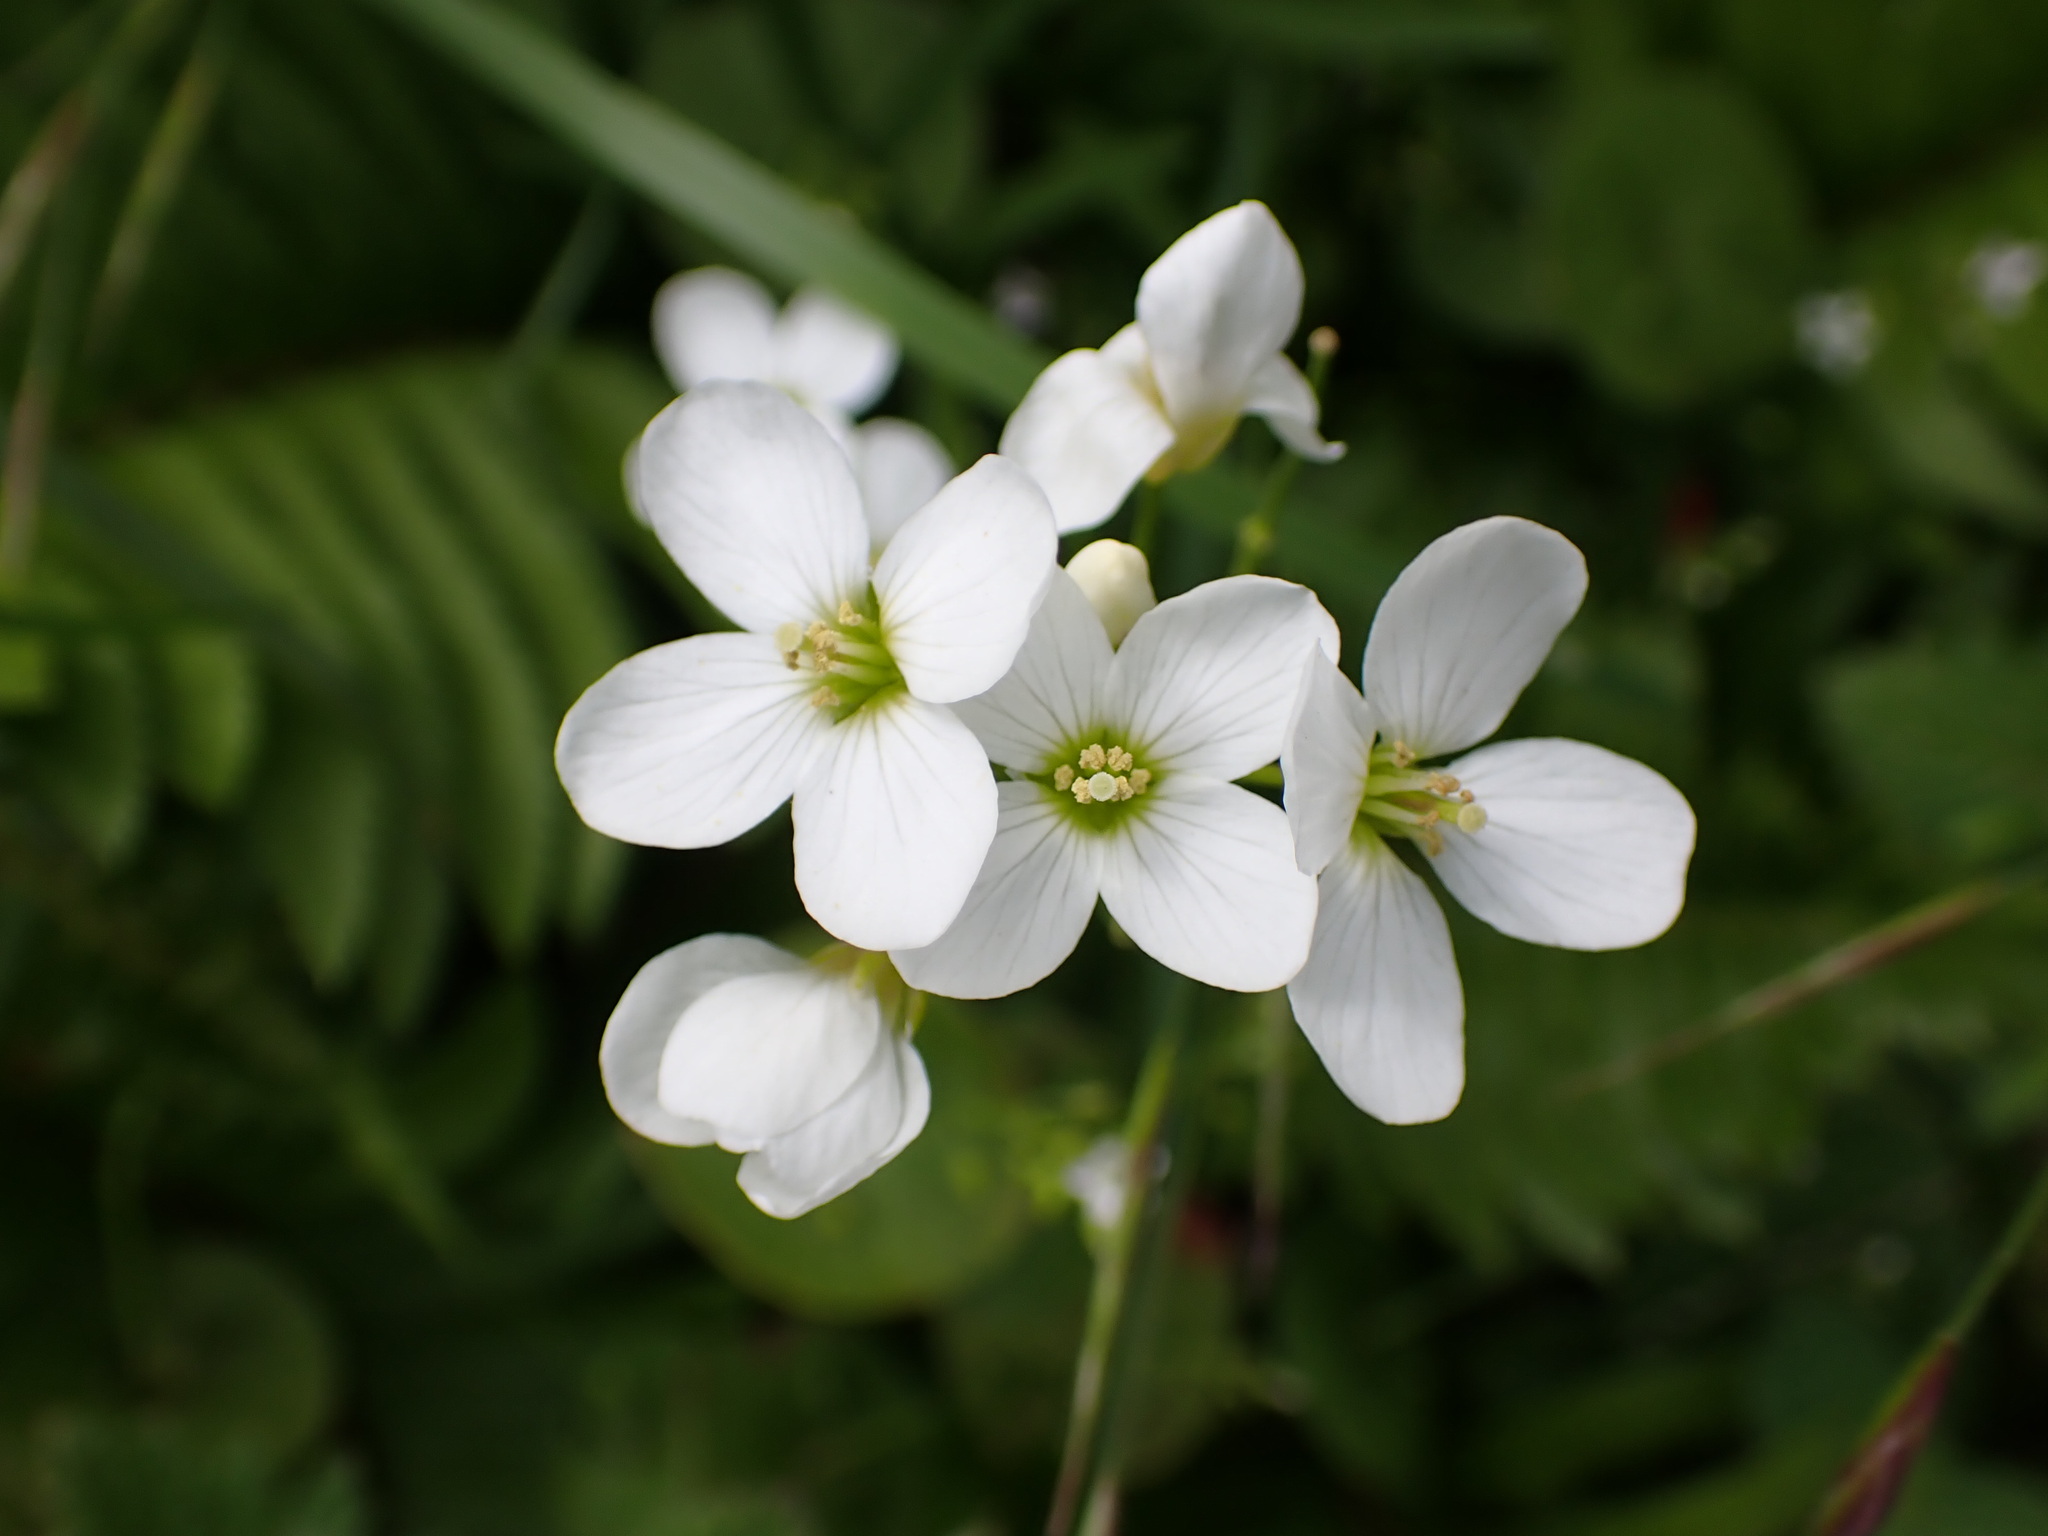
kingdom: Plantae
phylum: Tracheophyta
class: Magnoliopsida
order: Brassicales
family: Brassicaceae
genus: Cardamine
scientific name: Cardamine californica
